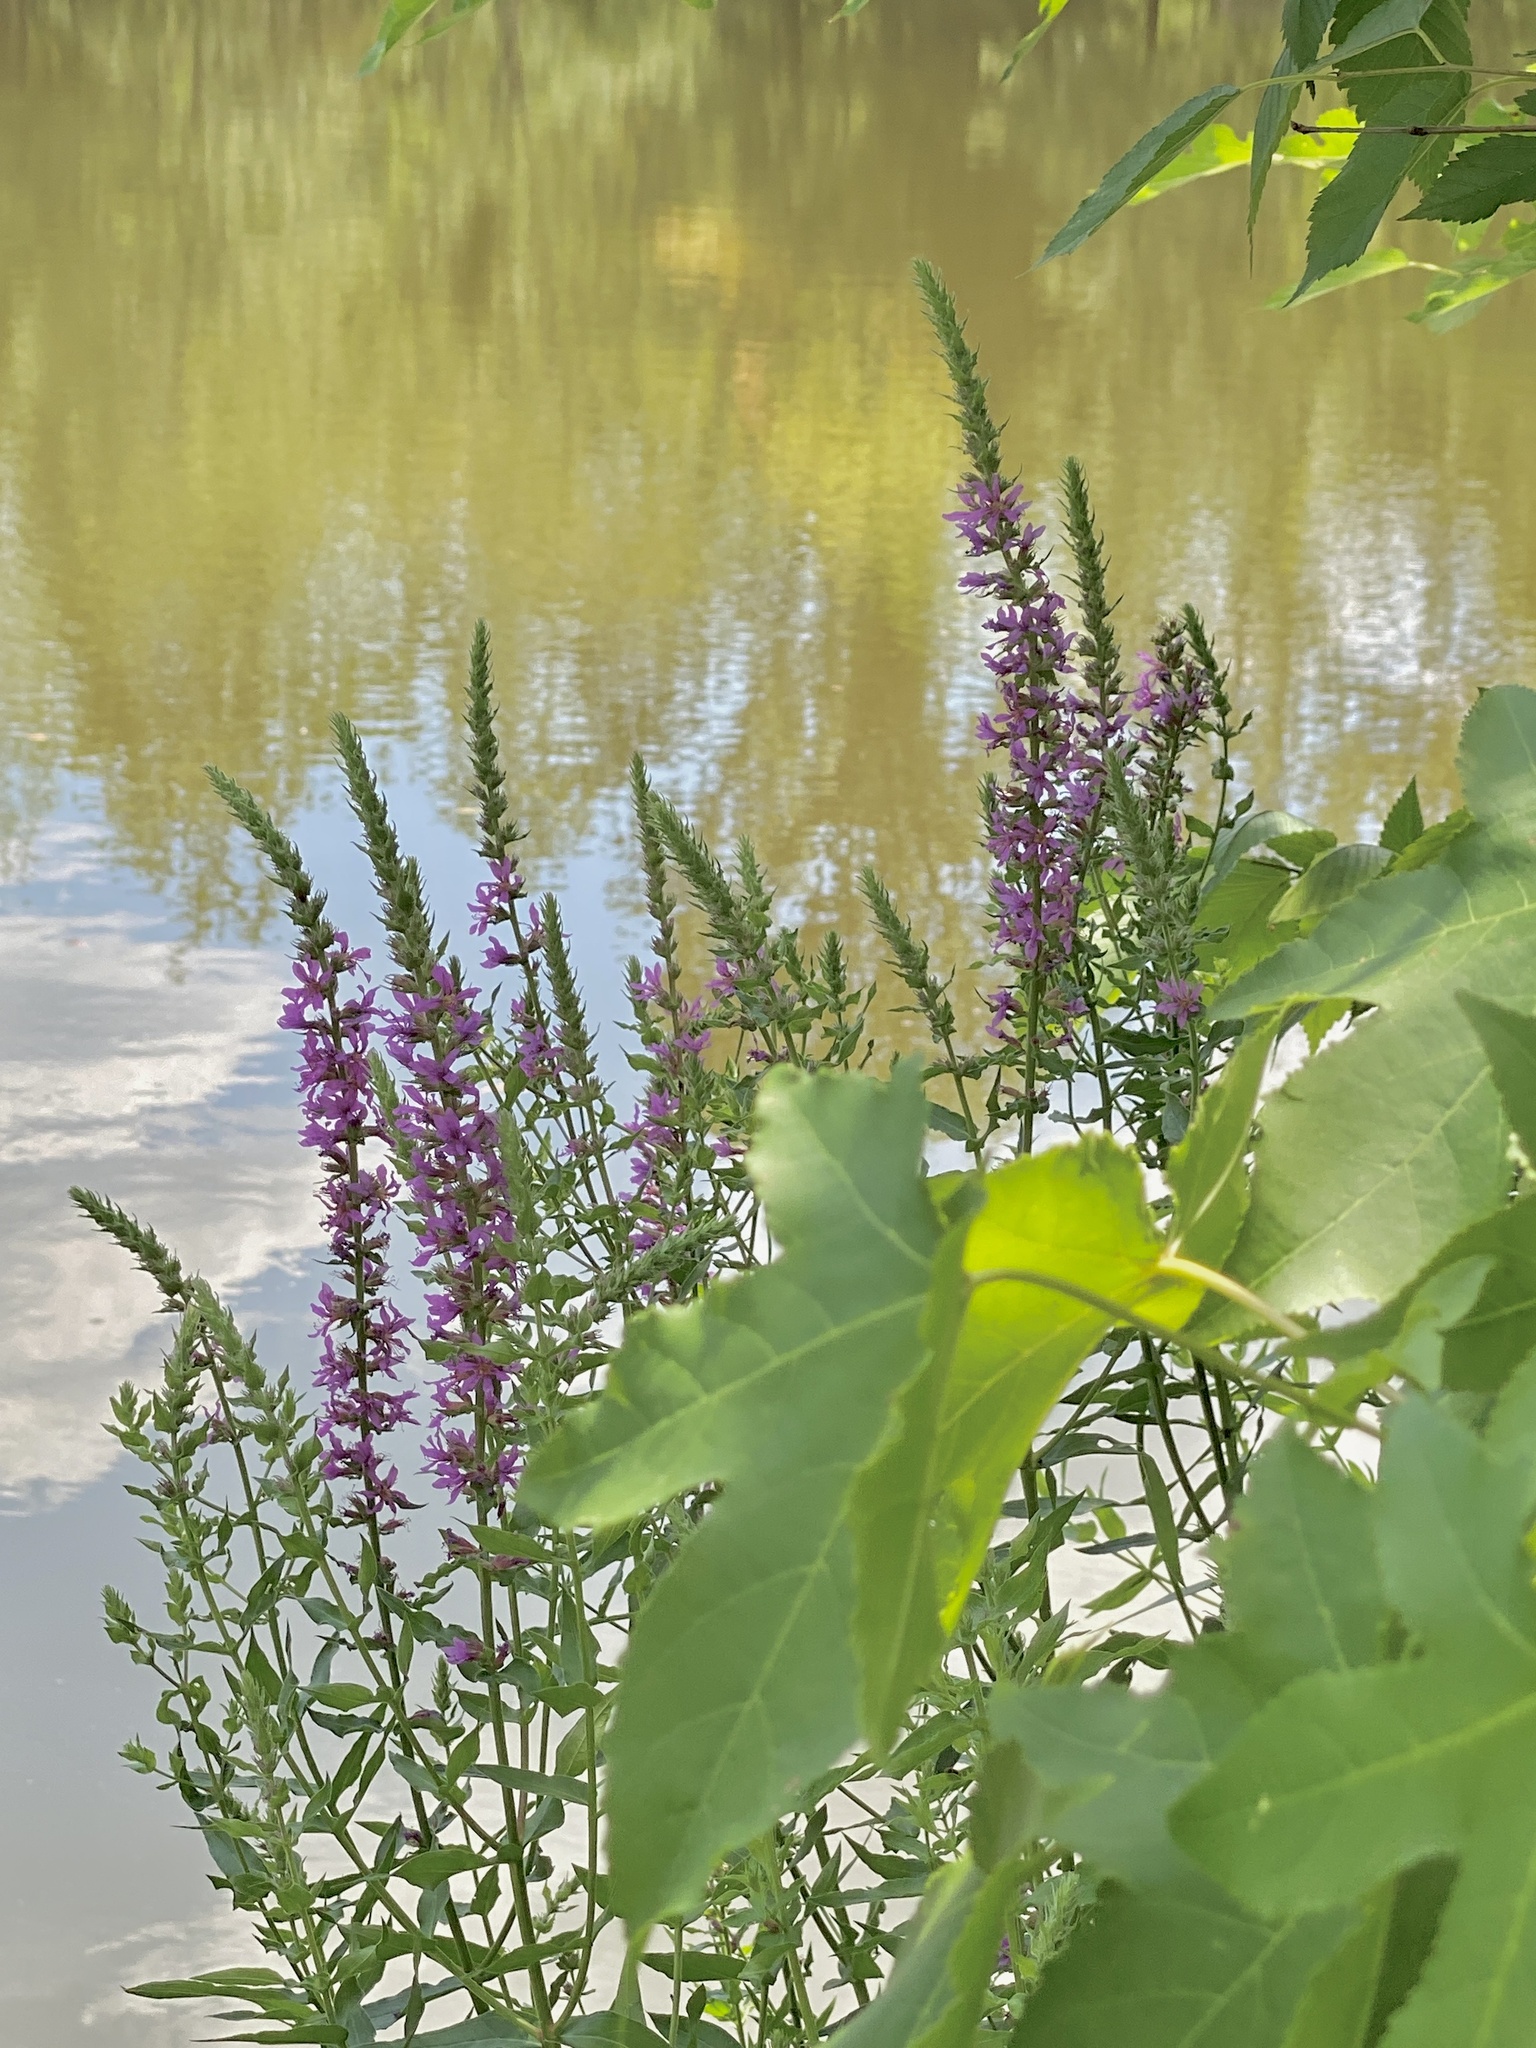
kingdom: Plantae
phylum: Tracheophyta
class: Magnoliopsida
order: Myrtales
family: Lythraceae
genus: Lythrum
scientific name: Lythrum salicaria
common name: Purple loosestrife
